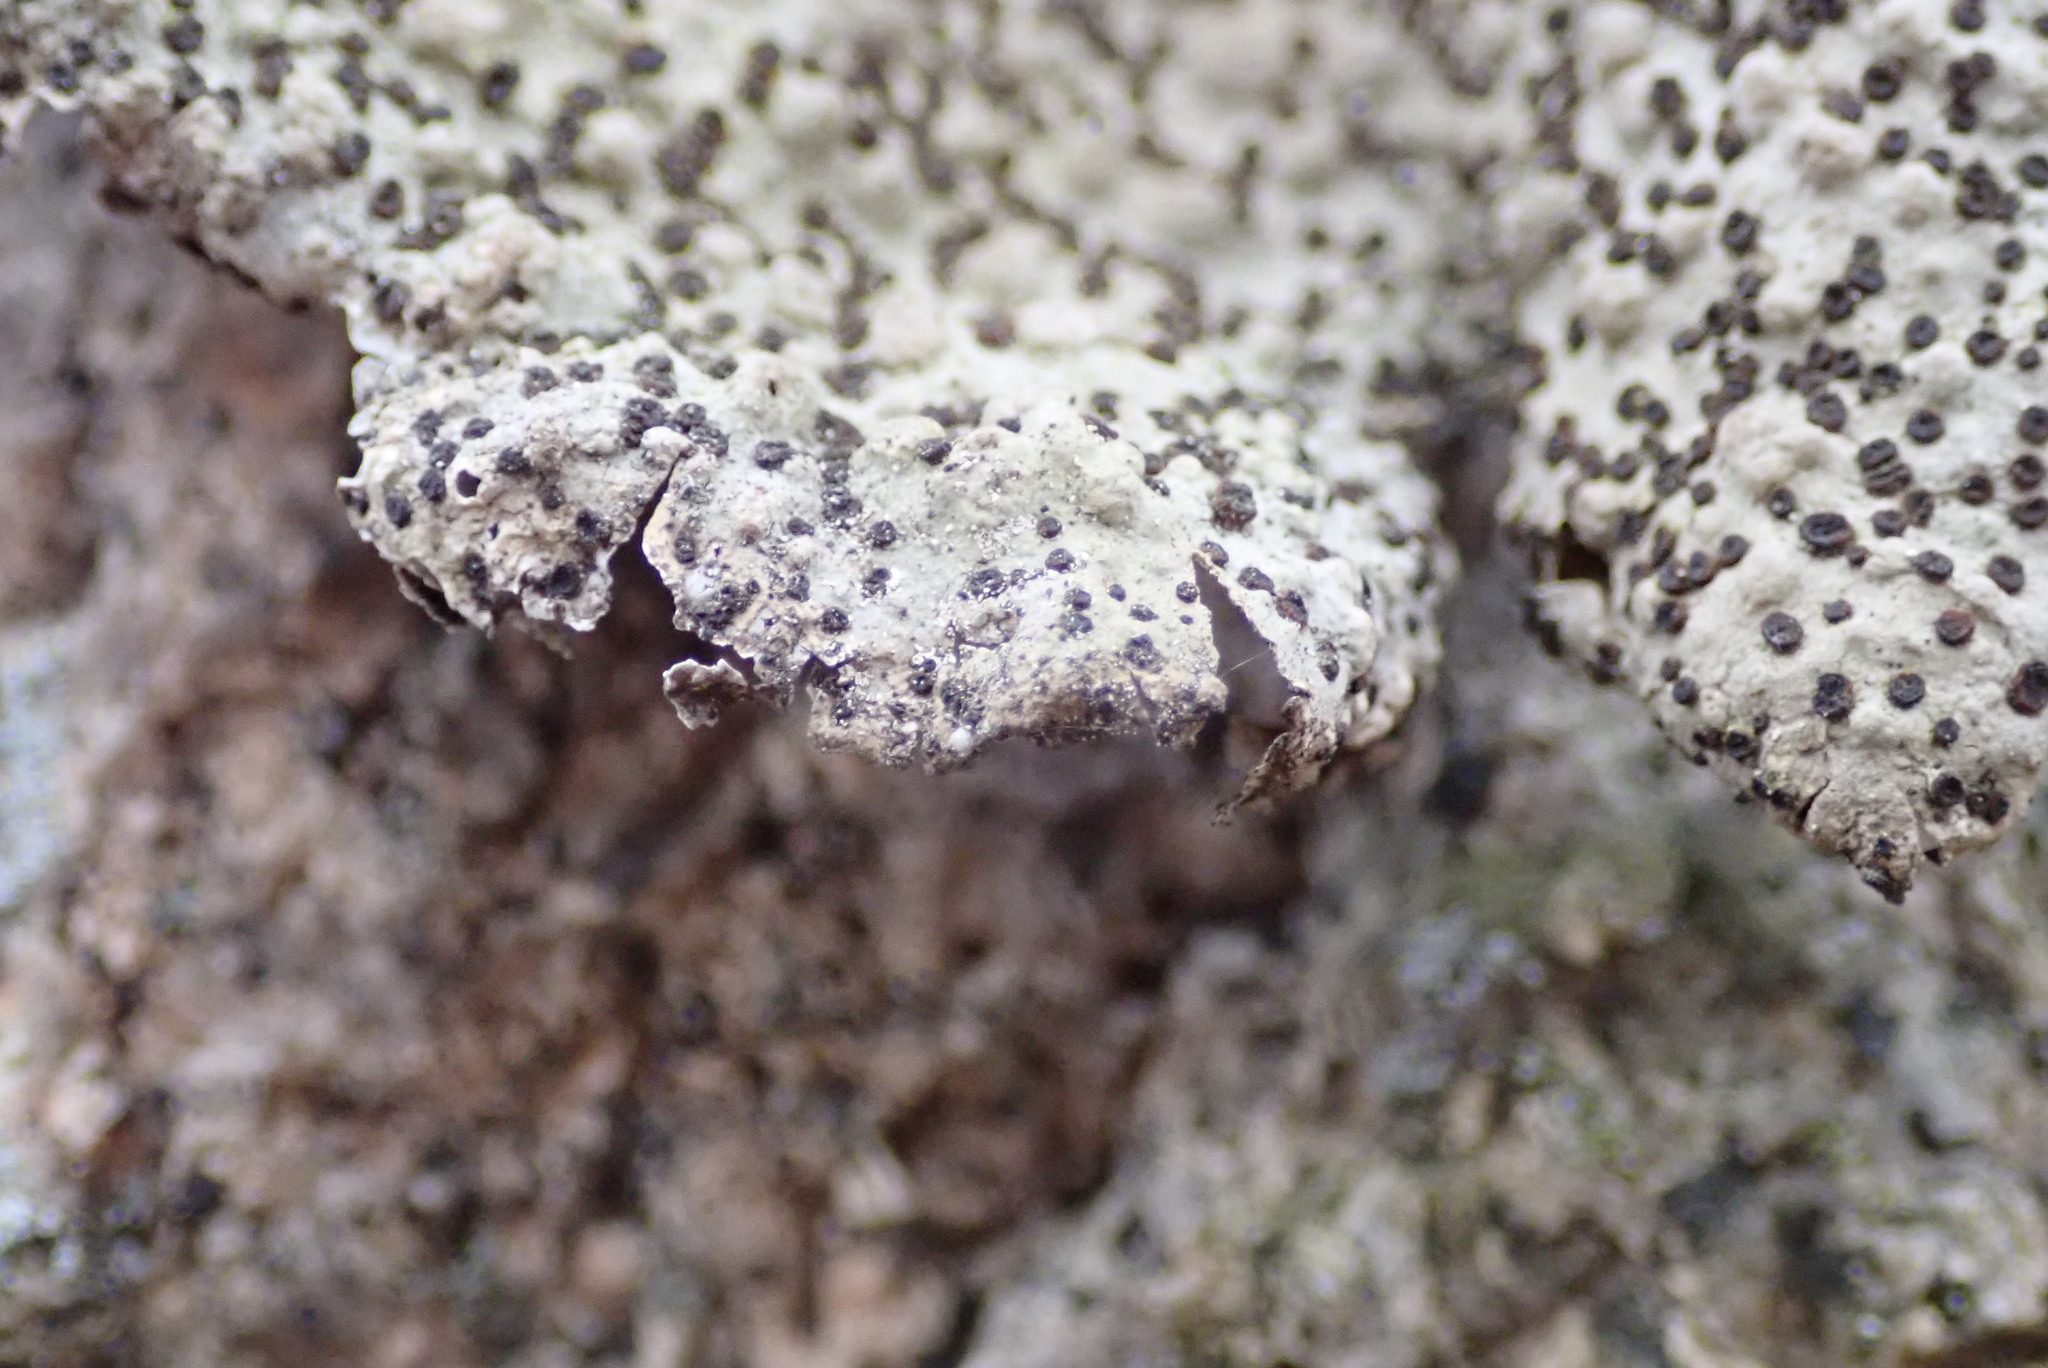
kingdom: Fungi
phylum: Ascomycota
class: Lecanoromycetes
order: Umbilicariales
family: Umbilicariaceae
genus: Lasallia
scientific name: Lasallia papulosa
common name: Common toadskin lichen
